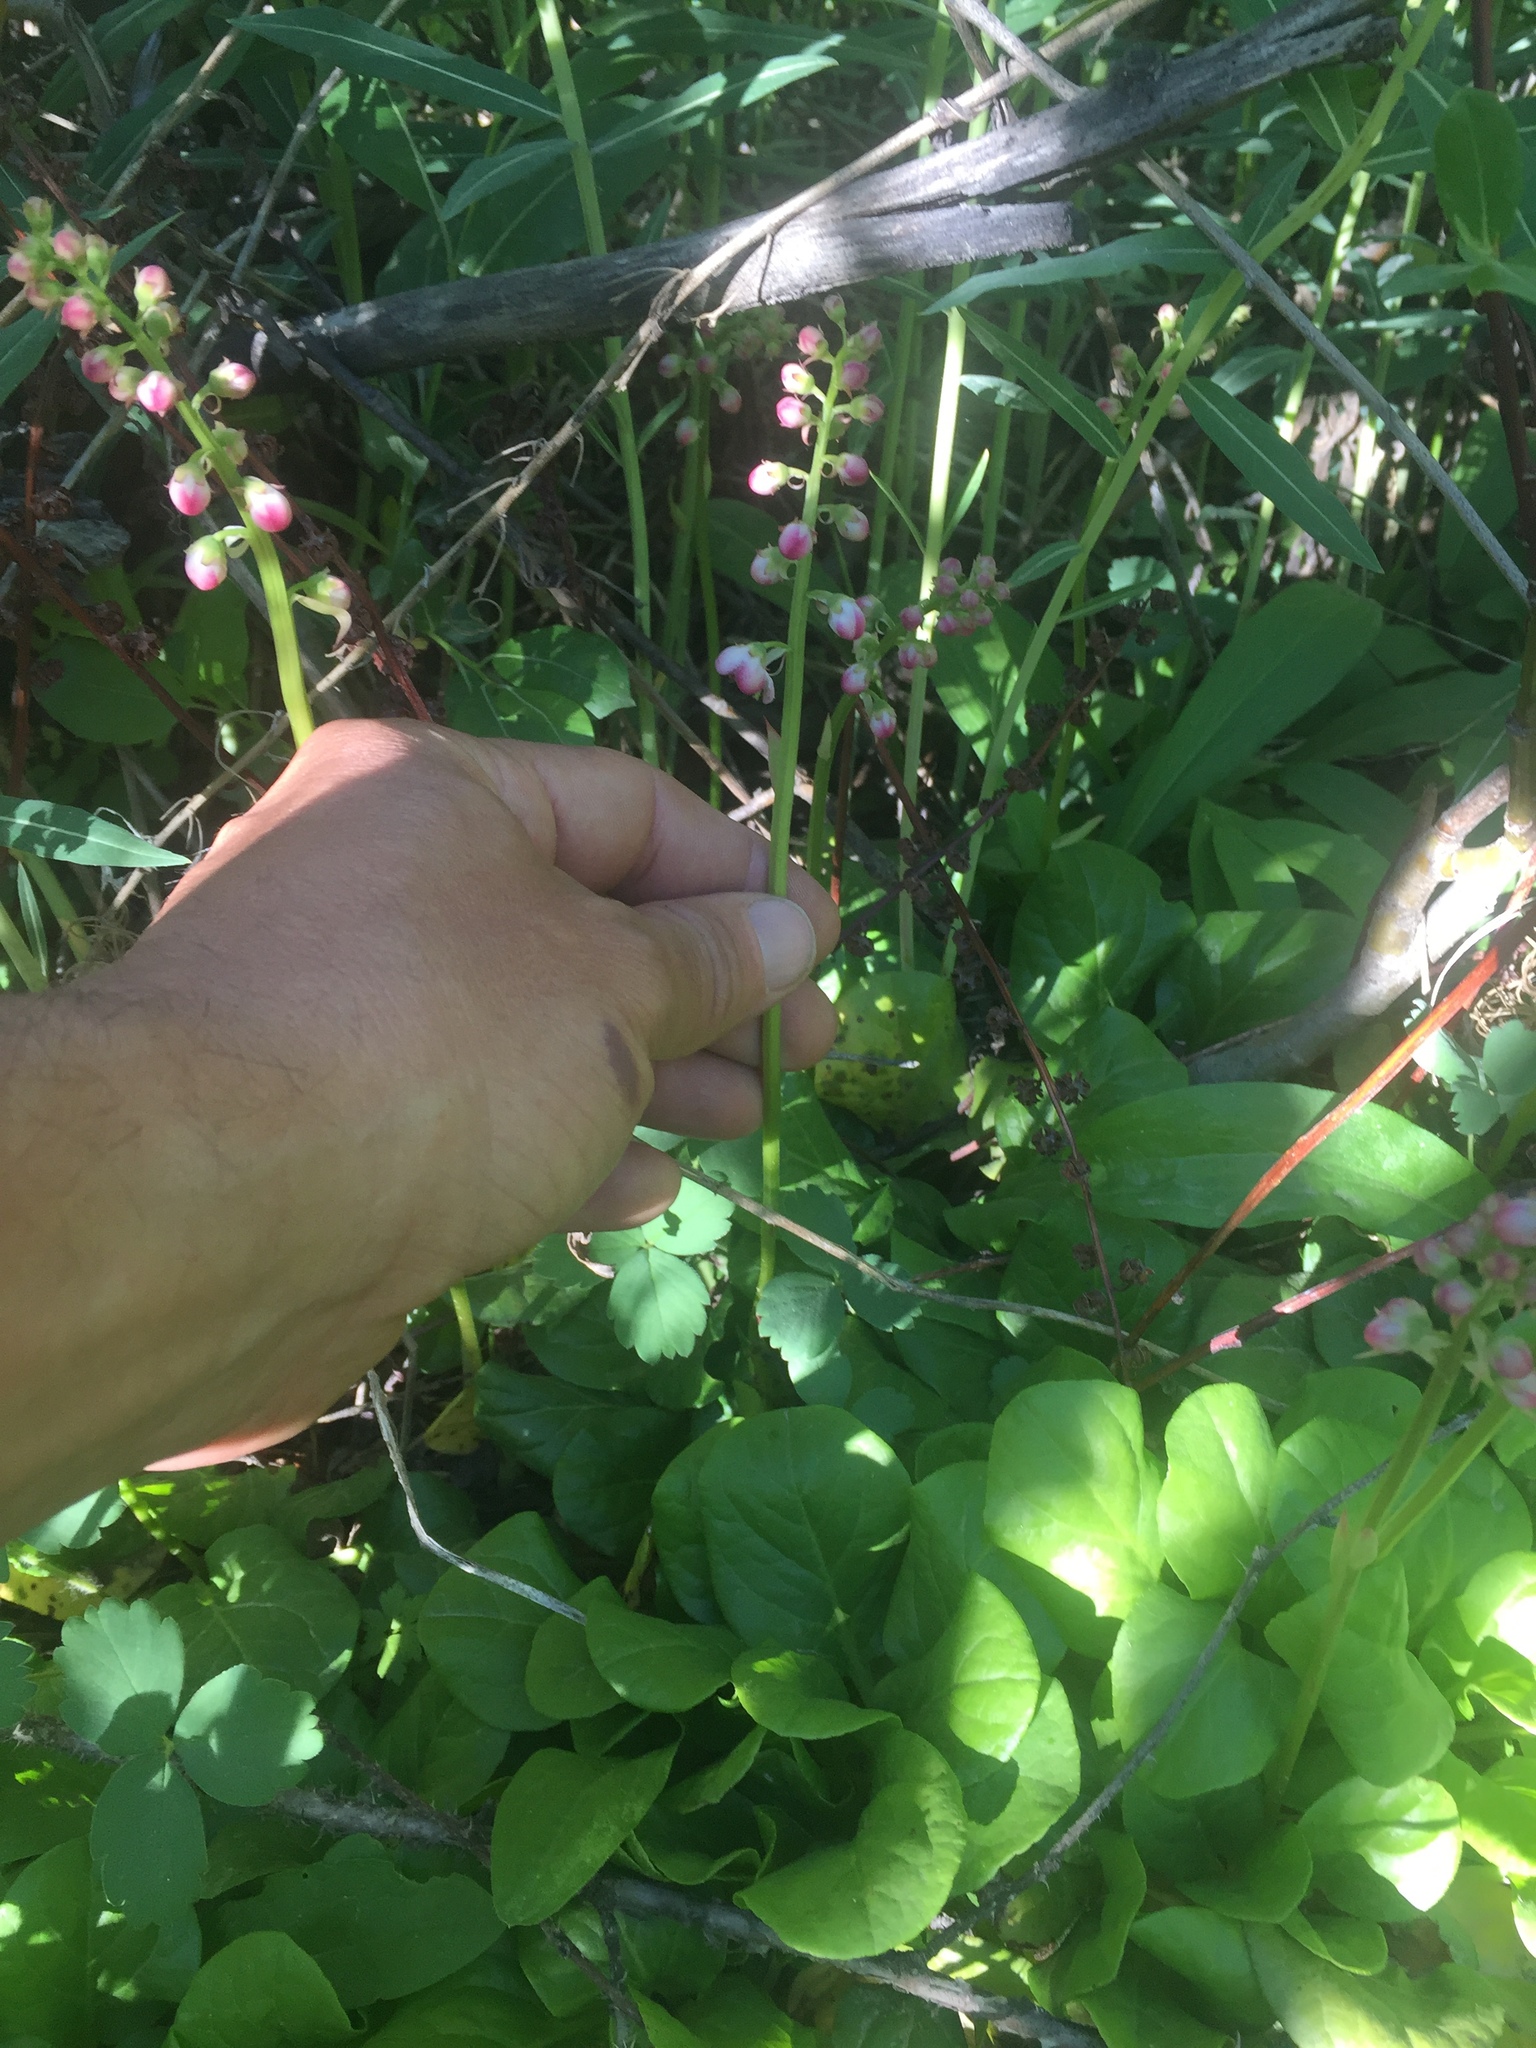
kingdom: Plantae
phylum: Tracheophyta
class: Magnoliopsida
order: Ericales
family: Ericaceae
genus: Pyrola
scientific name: Pyrola asarifolia
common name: Bog wintergreen
